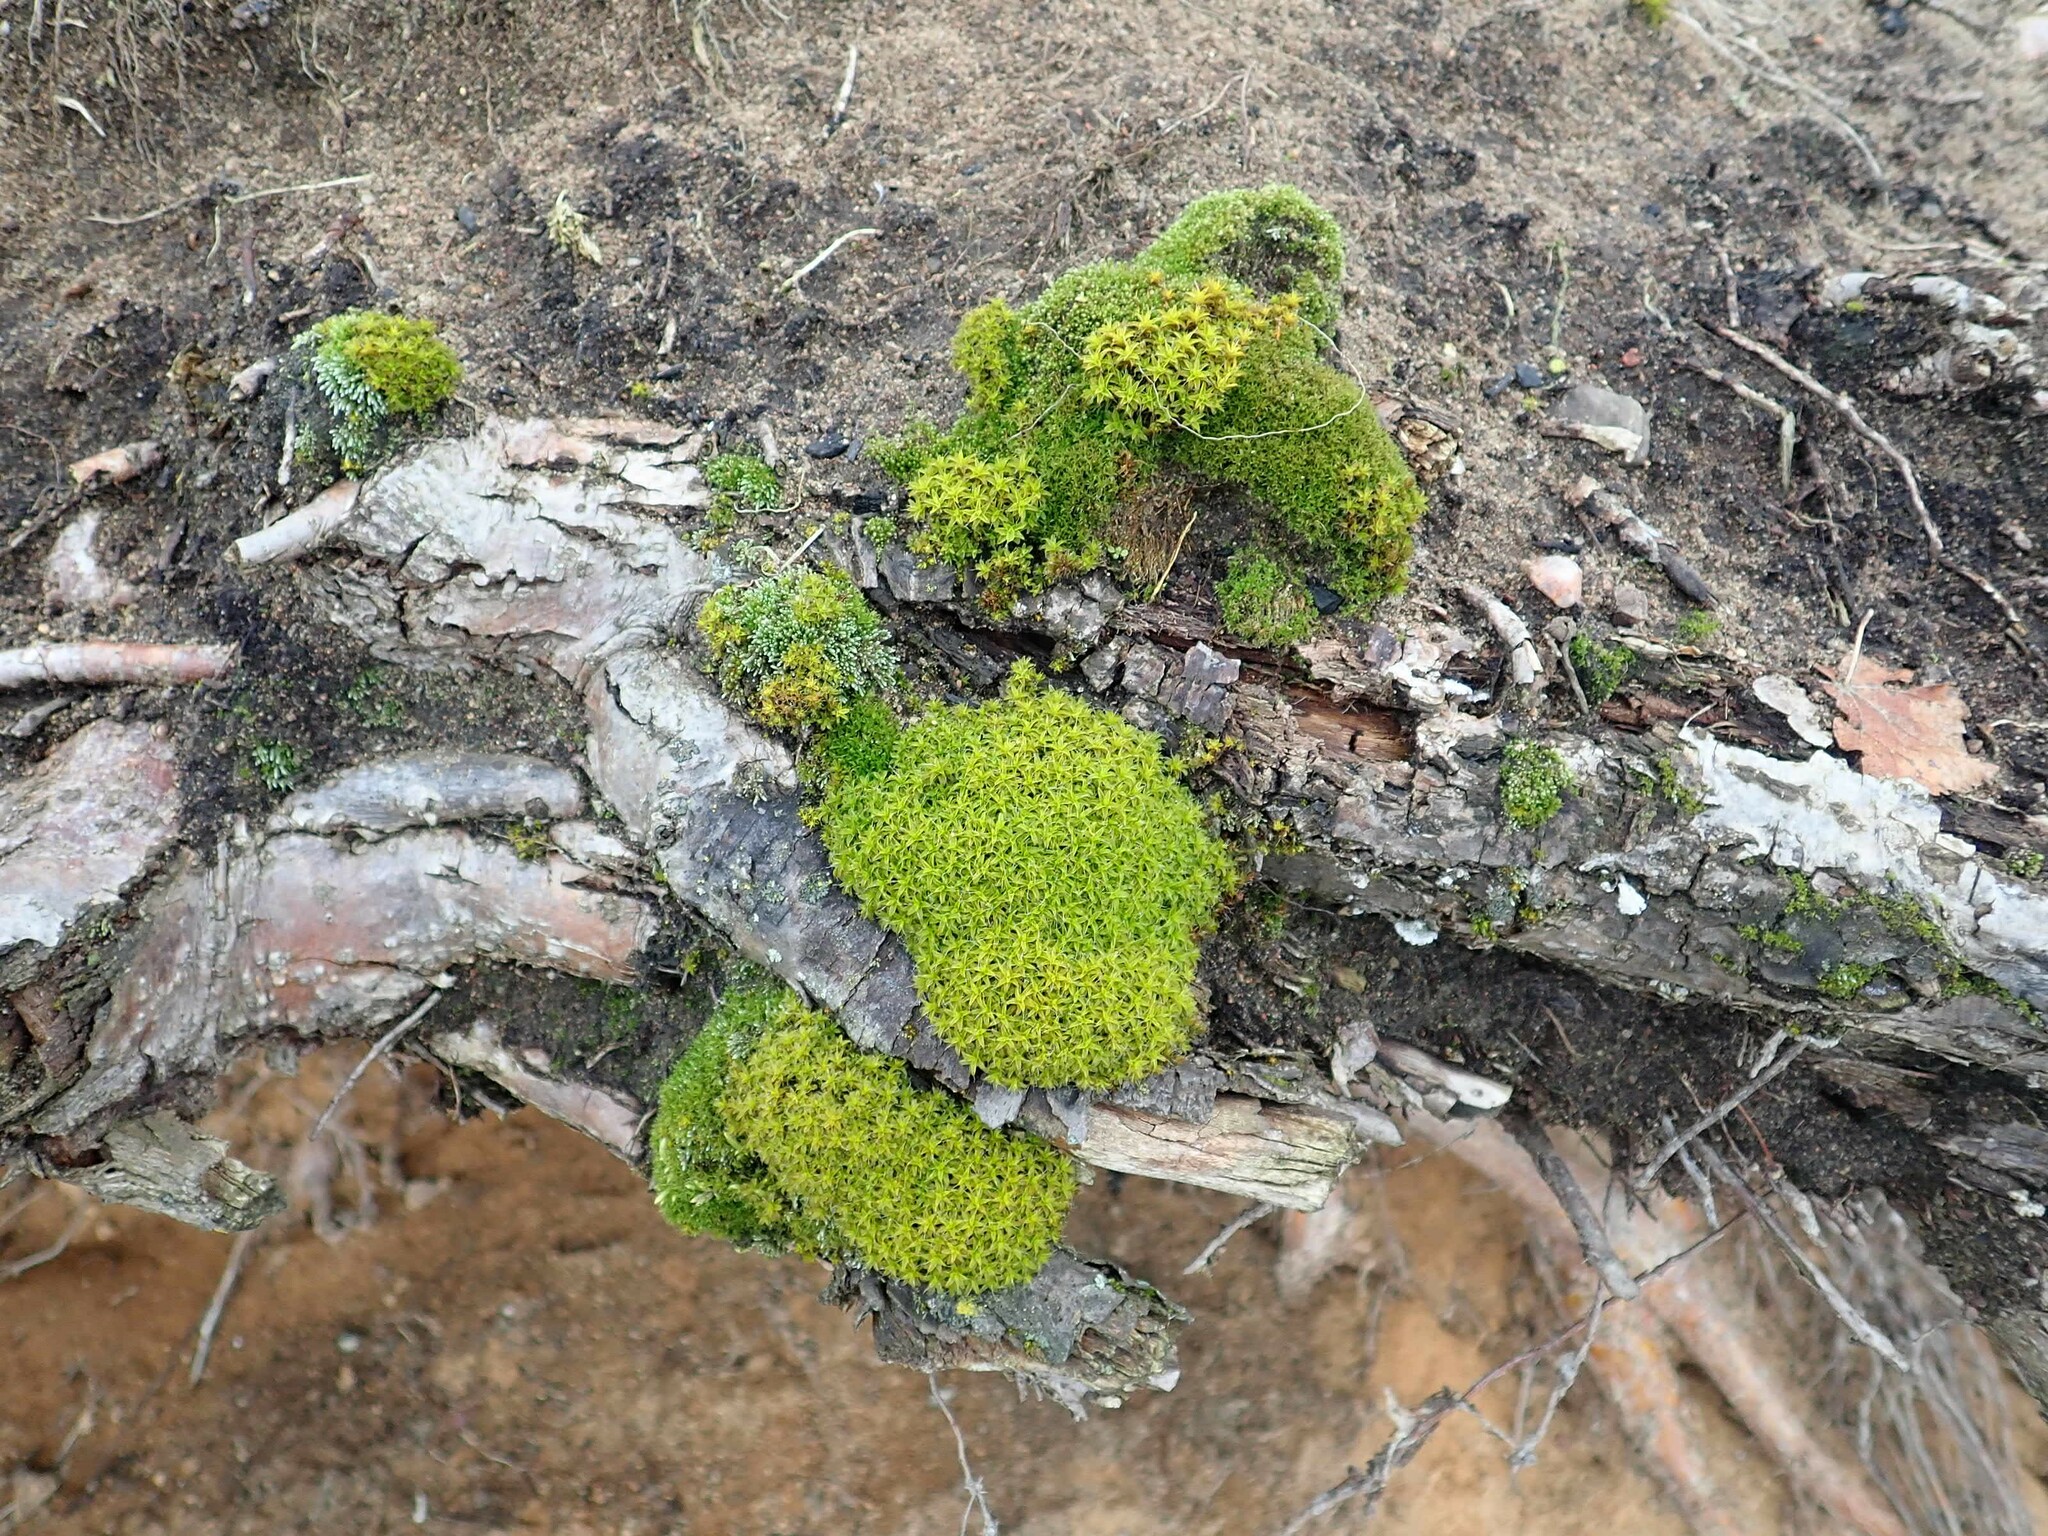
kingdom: Plantae
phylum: Bryophyta
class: Bryopsida
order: Pottiales
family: Pottiaceae
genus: Syntrichia
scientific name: Syntrichia ruralis
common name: Sidewalk screw moss
